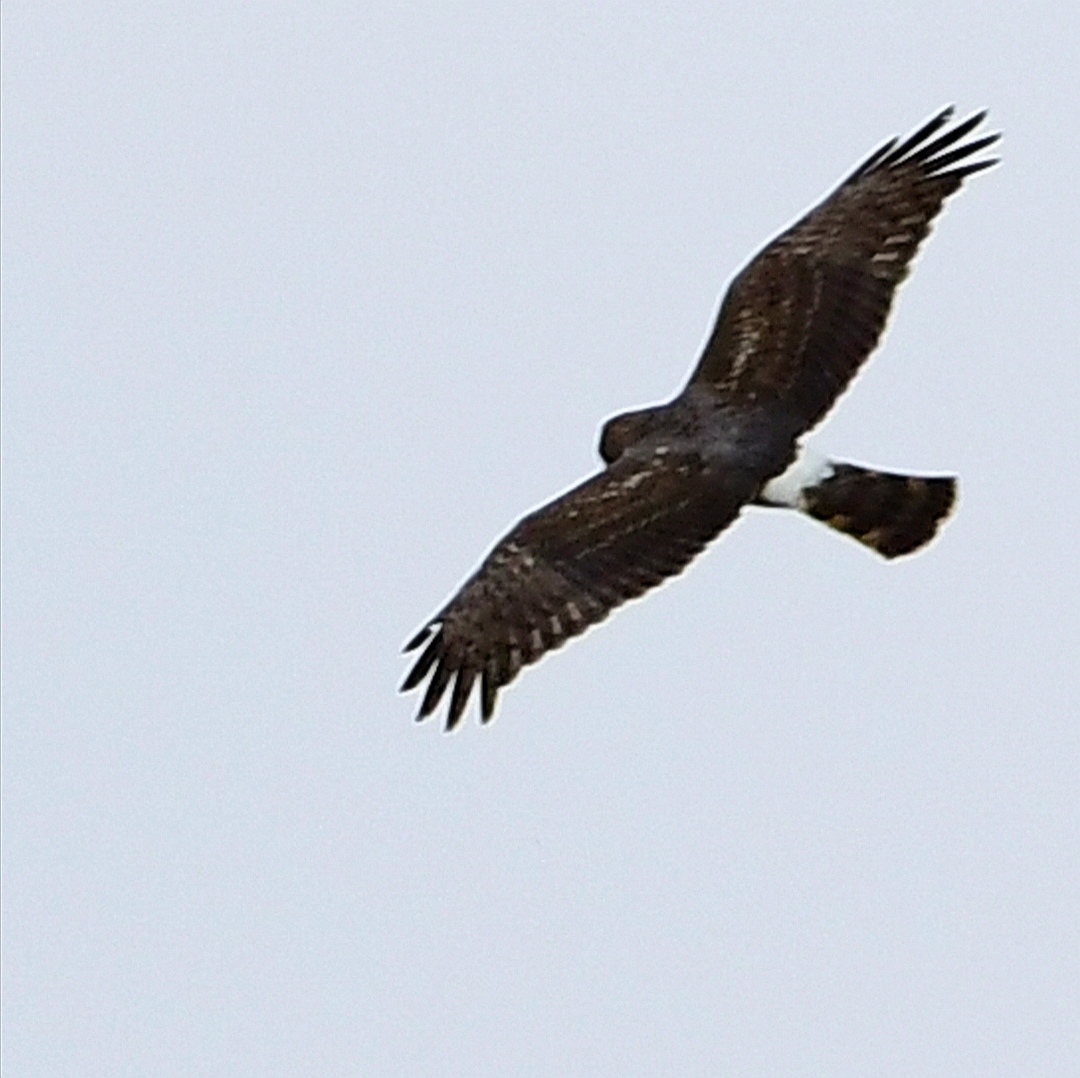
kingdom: Animalia
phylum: Chordata
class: Aves
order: Accipitriformes
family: Accipitridae
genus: Circus
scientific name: Circus cyaneus
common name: Hen harrier
